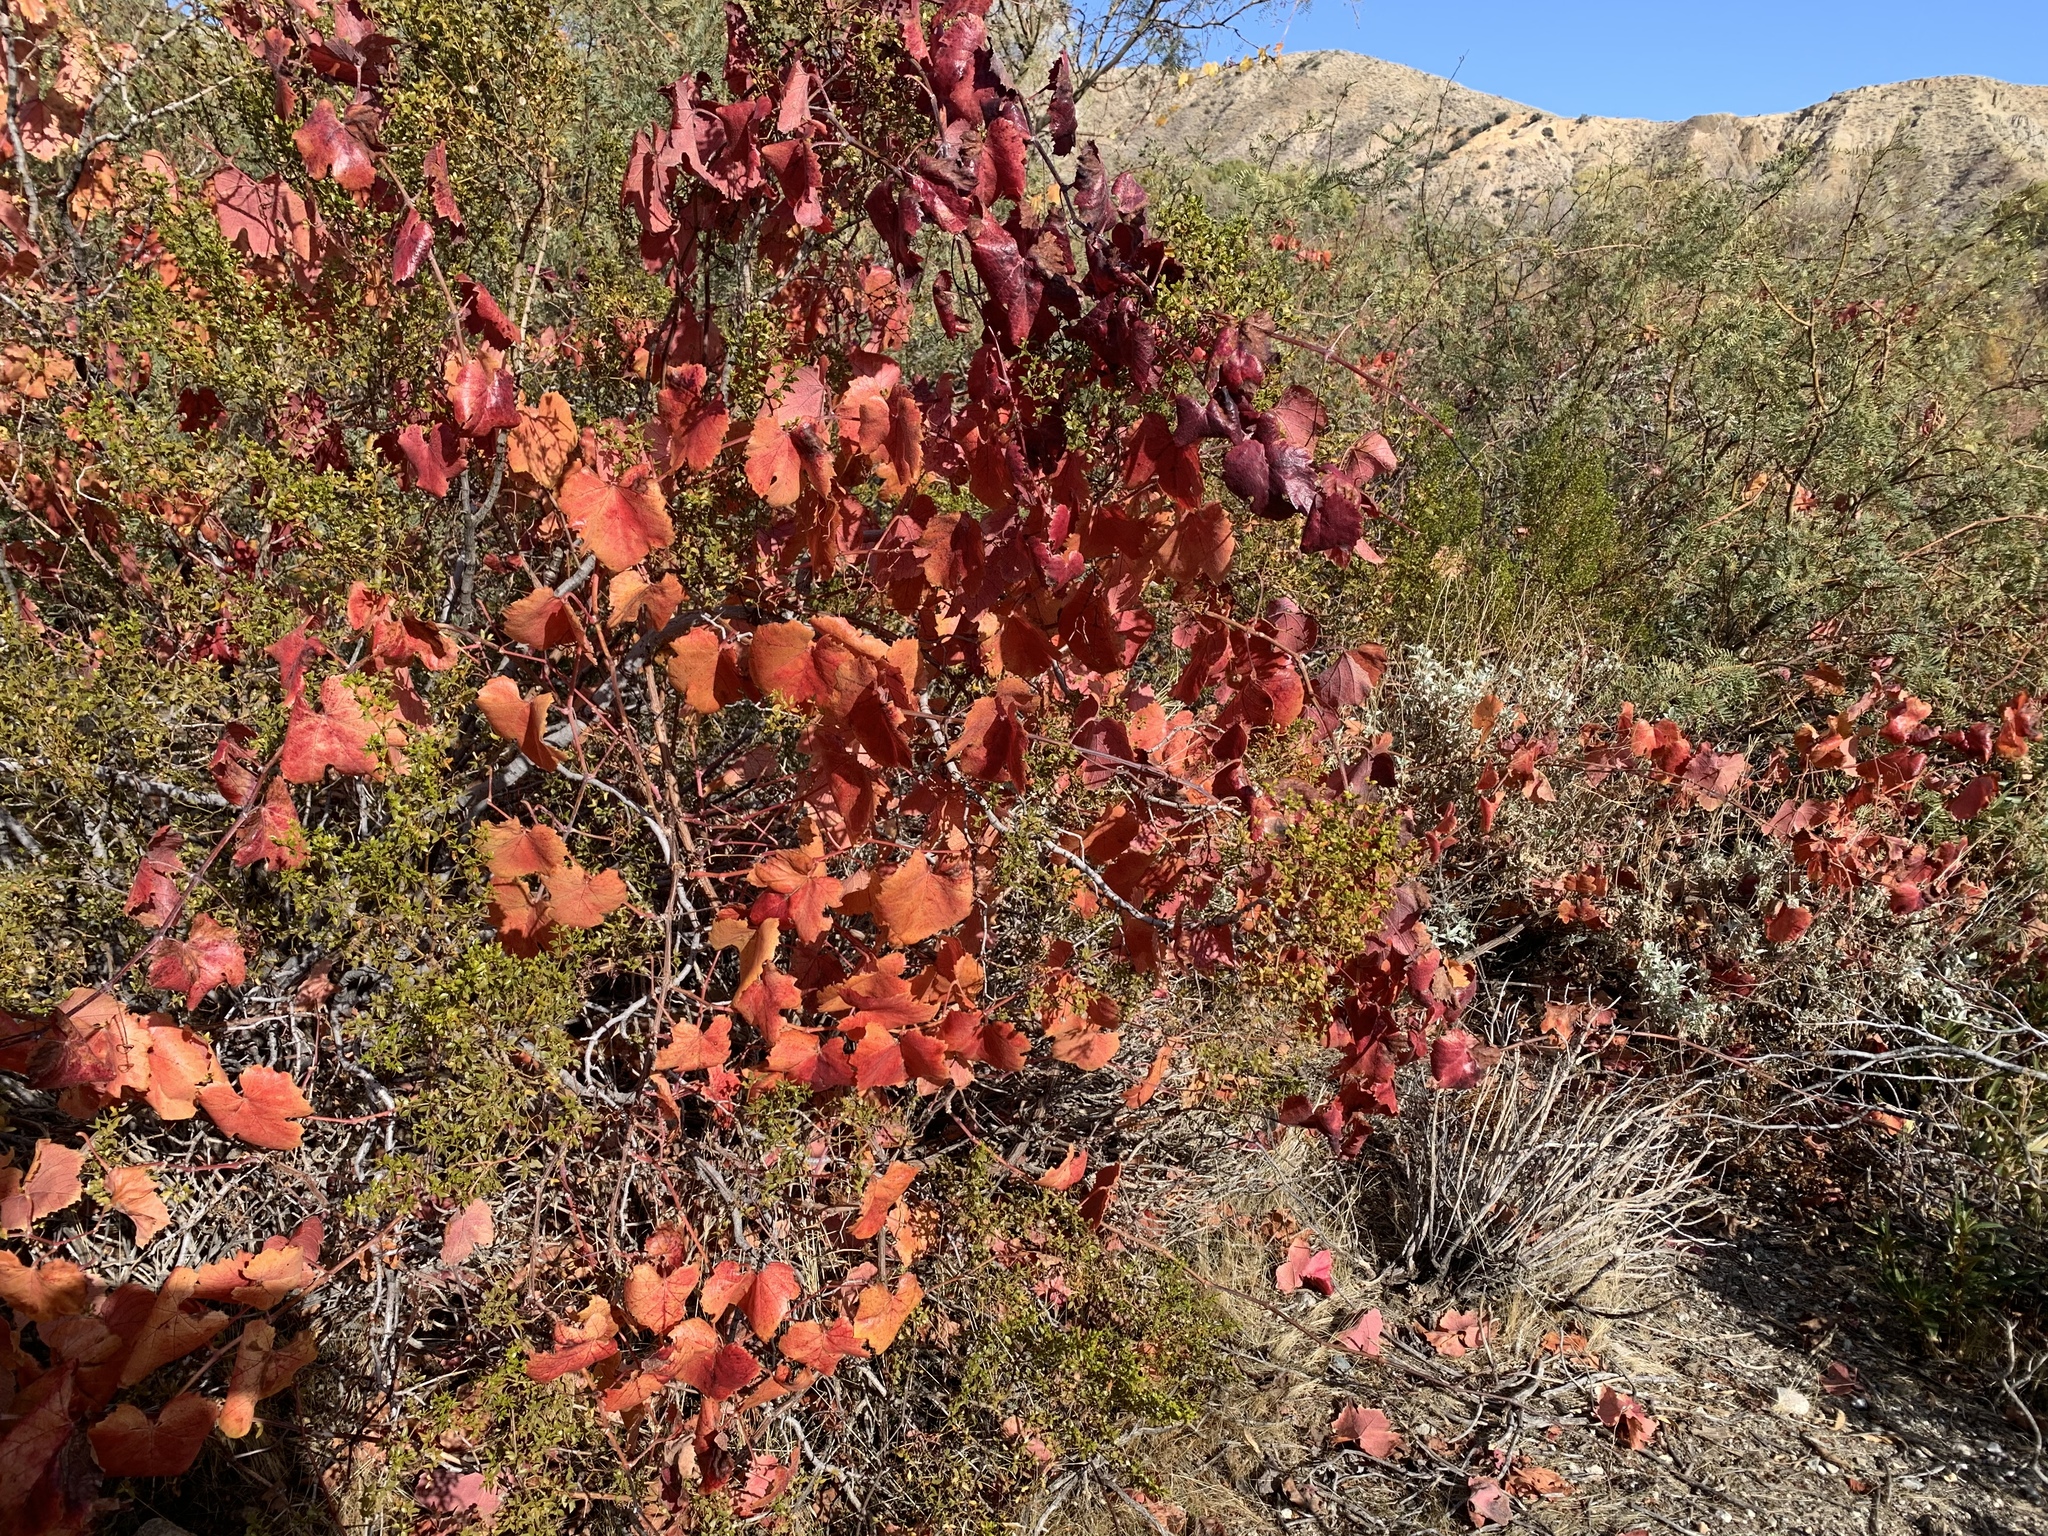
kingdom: Plantae
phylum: Tracheophyta
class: Magnoliopsida
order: Vitales
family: Vitaceae
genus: Vitis
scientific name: Vitis girdiana
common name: Desert wild grape
